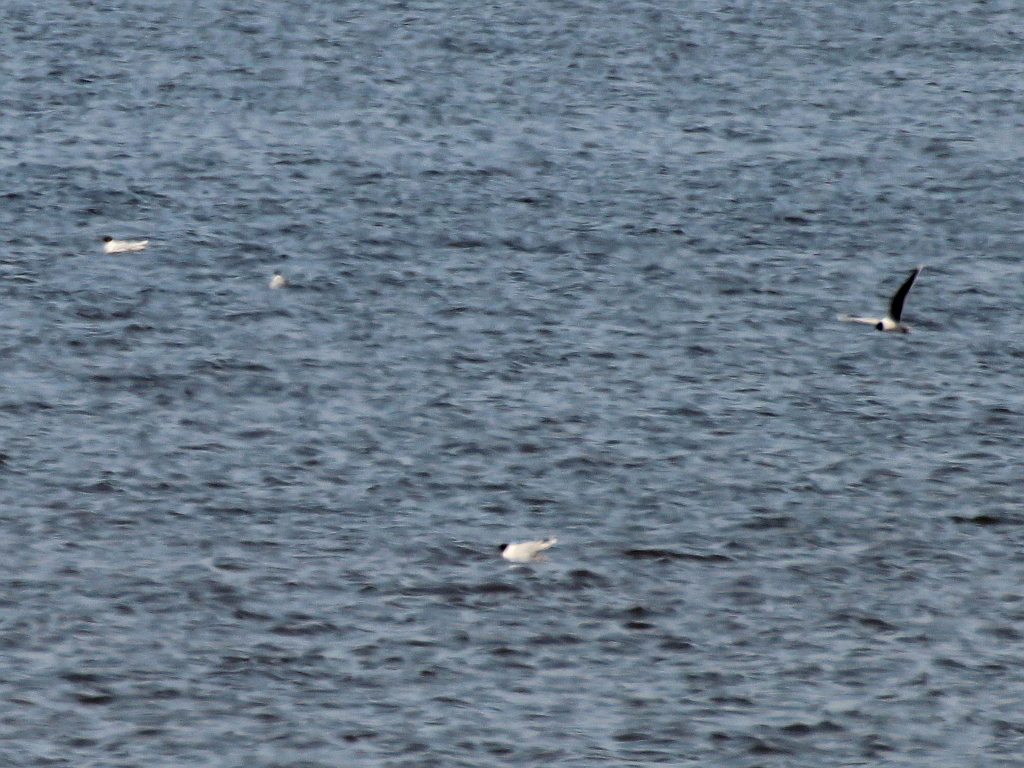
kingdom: Animalia
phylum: Chordata
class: Aves
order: Charadriiformes
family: Laridae
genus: Hydrocoloeus
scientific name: Hydrocoloeus minutus
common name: Little gull
